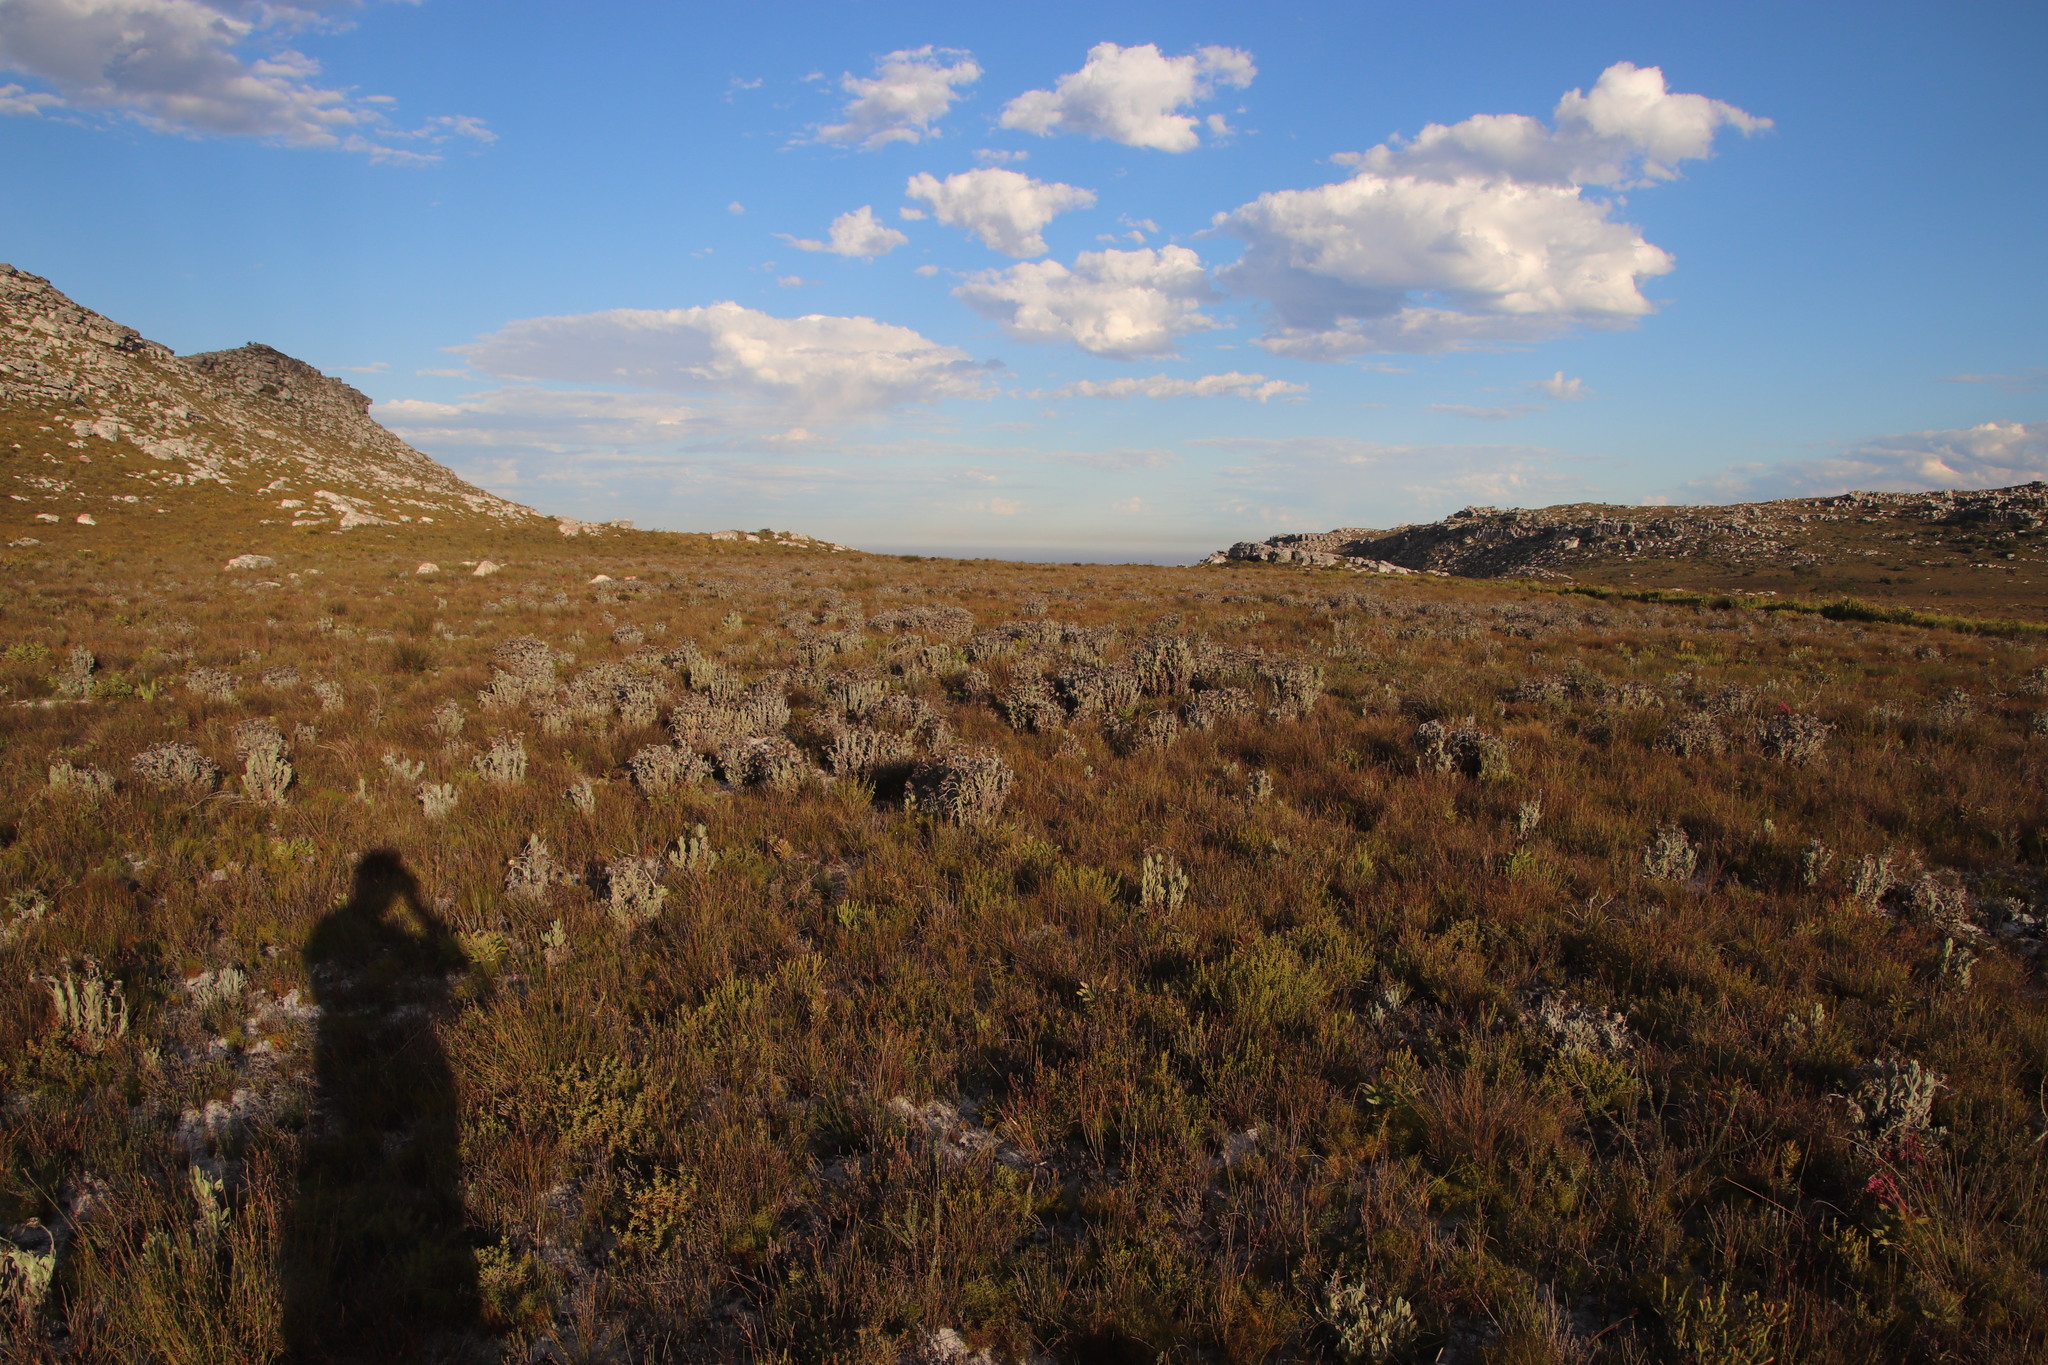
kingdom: Plantae
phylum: Tracheophyta
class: Magnoliopsida
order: Asterales
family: Asteraceae
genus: Syncarpha
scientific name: Syncarpha vestita
